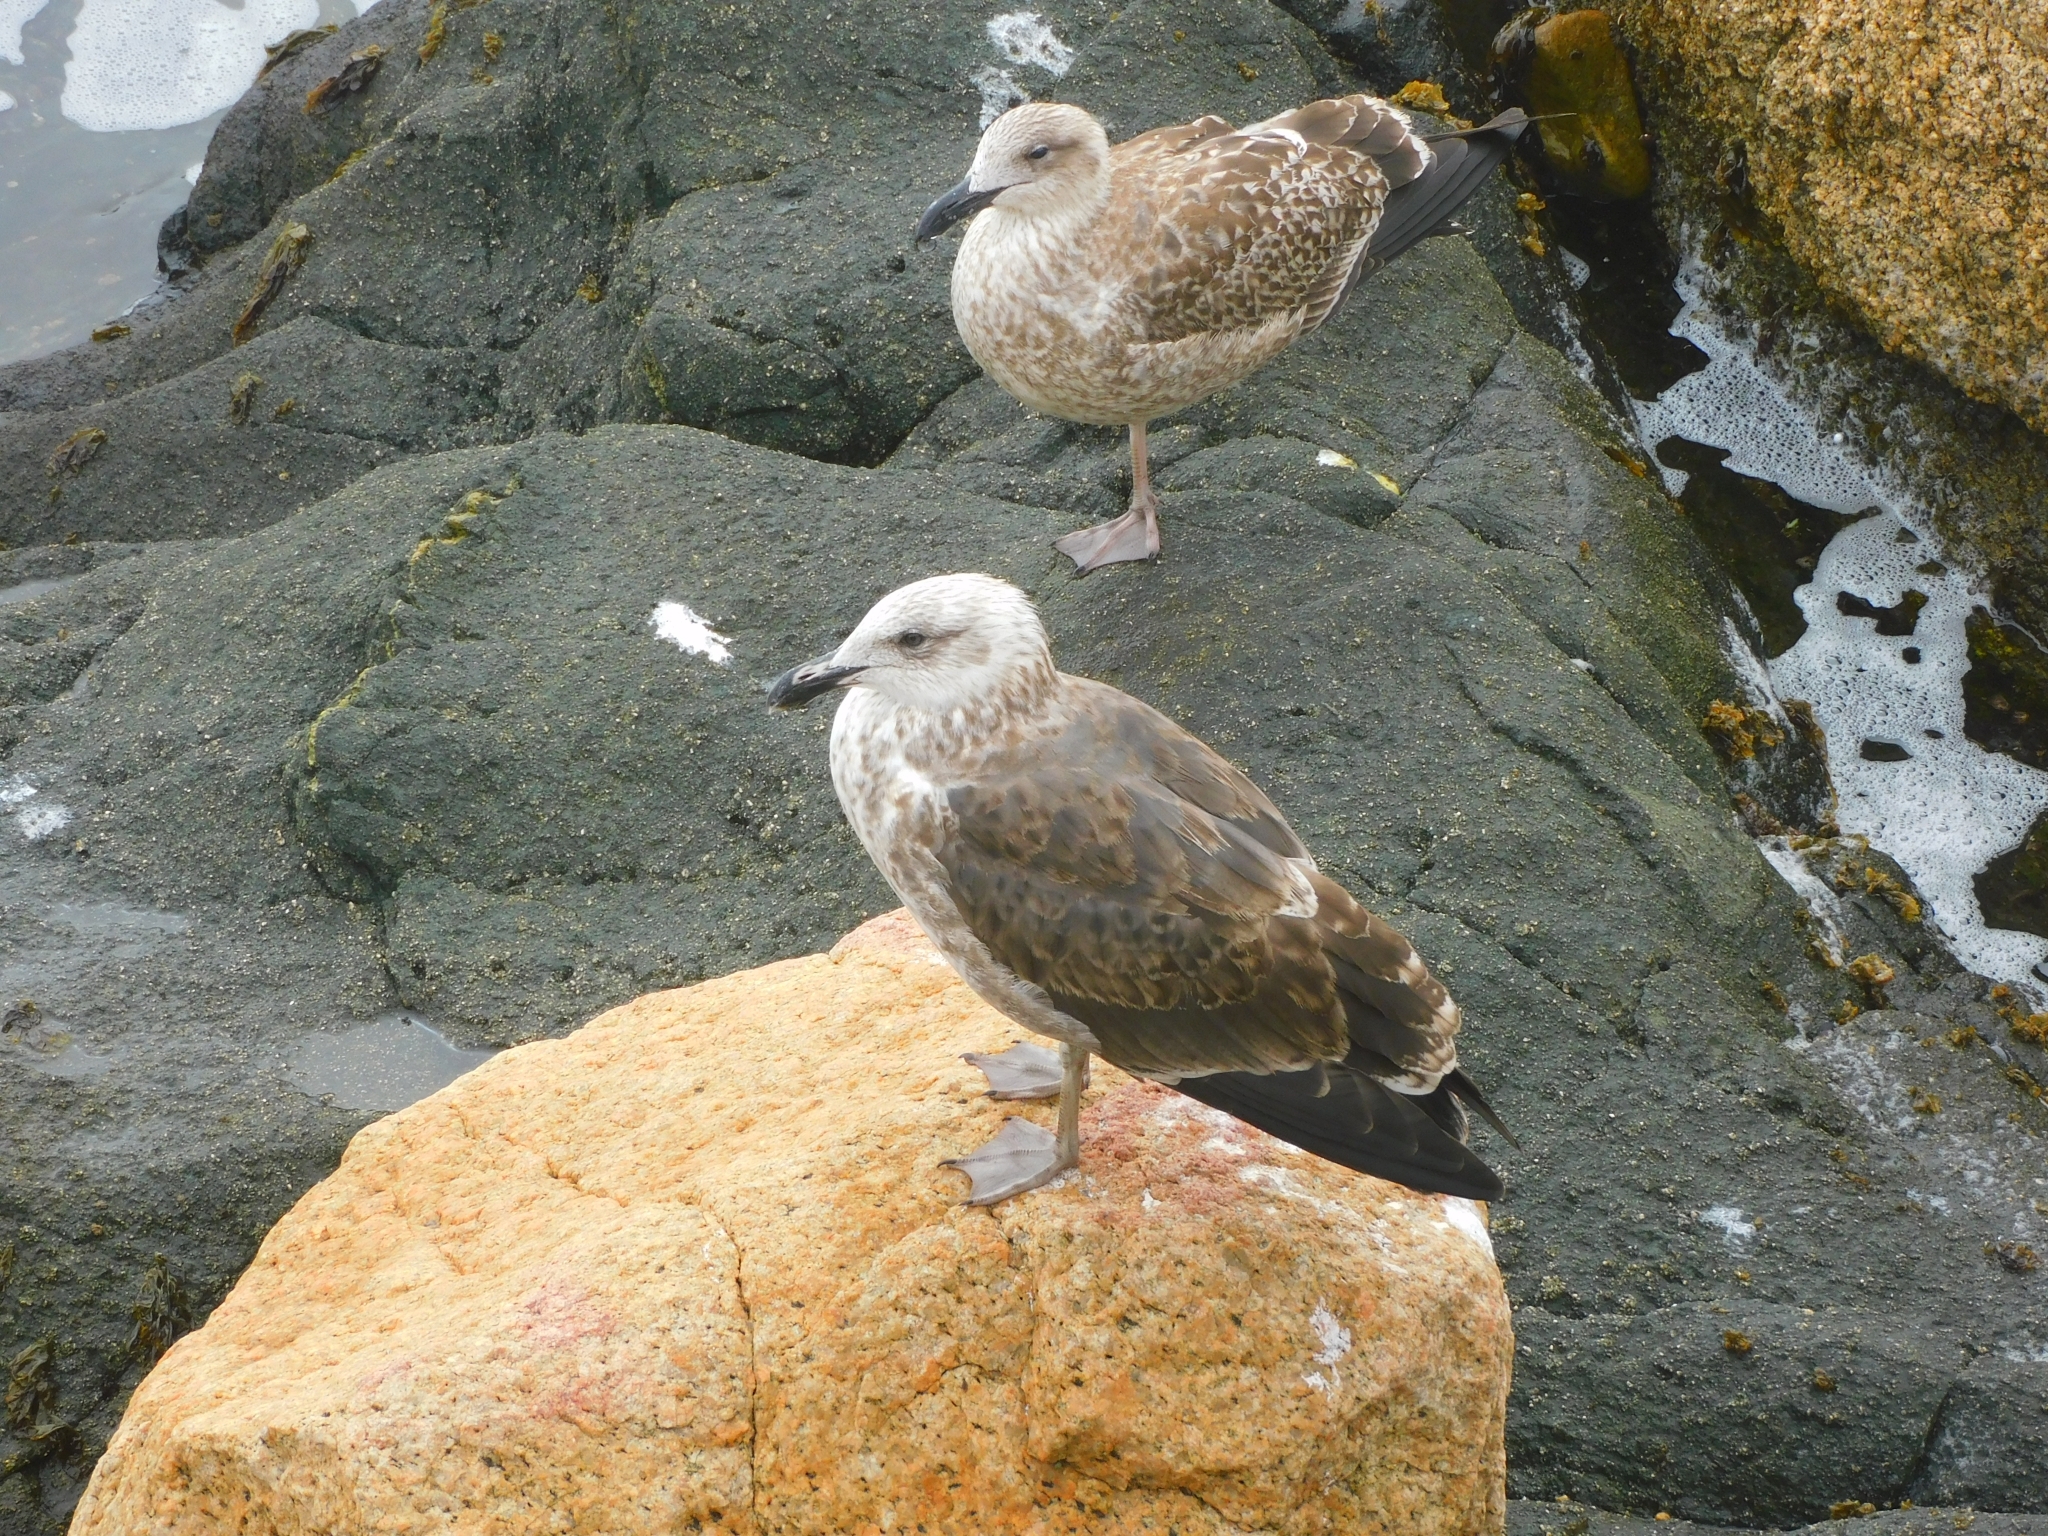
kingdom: Animalia
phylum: Chordata
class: Aves
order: Charadriiformes
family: Laridae
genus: Larus
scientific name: Larus dominicanus
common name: Kelp gull
